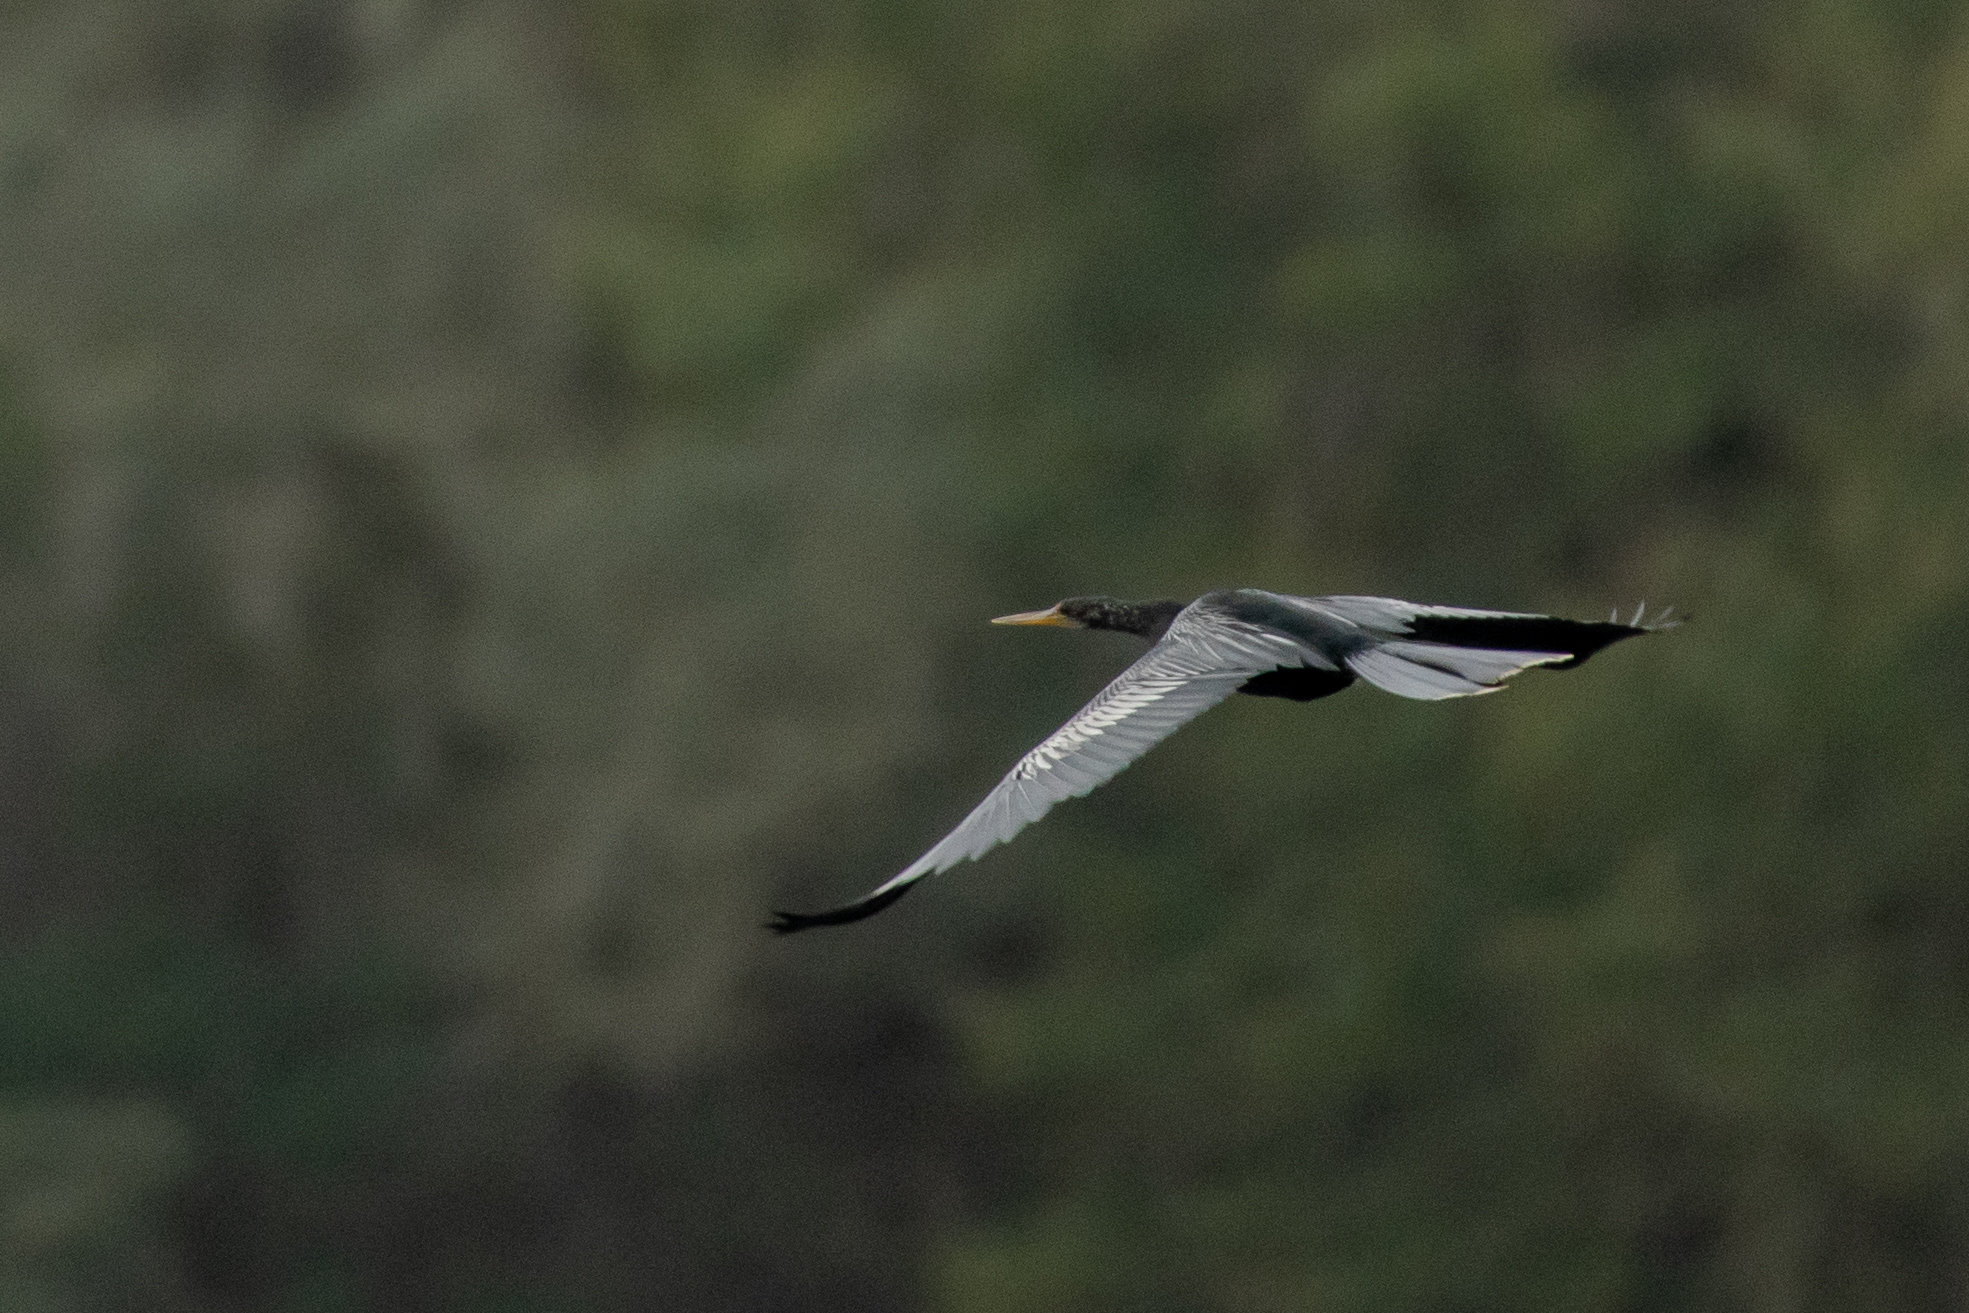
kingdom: Animalia
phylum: Chordata
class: Aves
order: Suliformes
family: Anhingidae
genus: Anhinga
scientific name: Anhinga anhinga
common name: Anhinga
